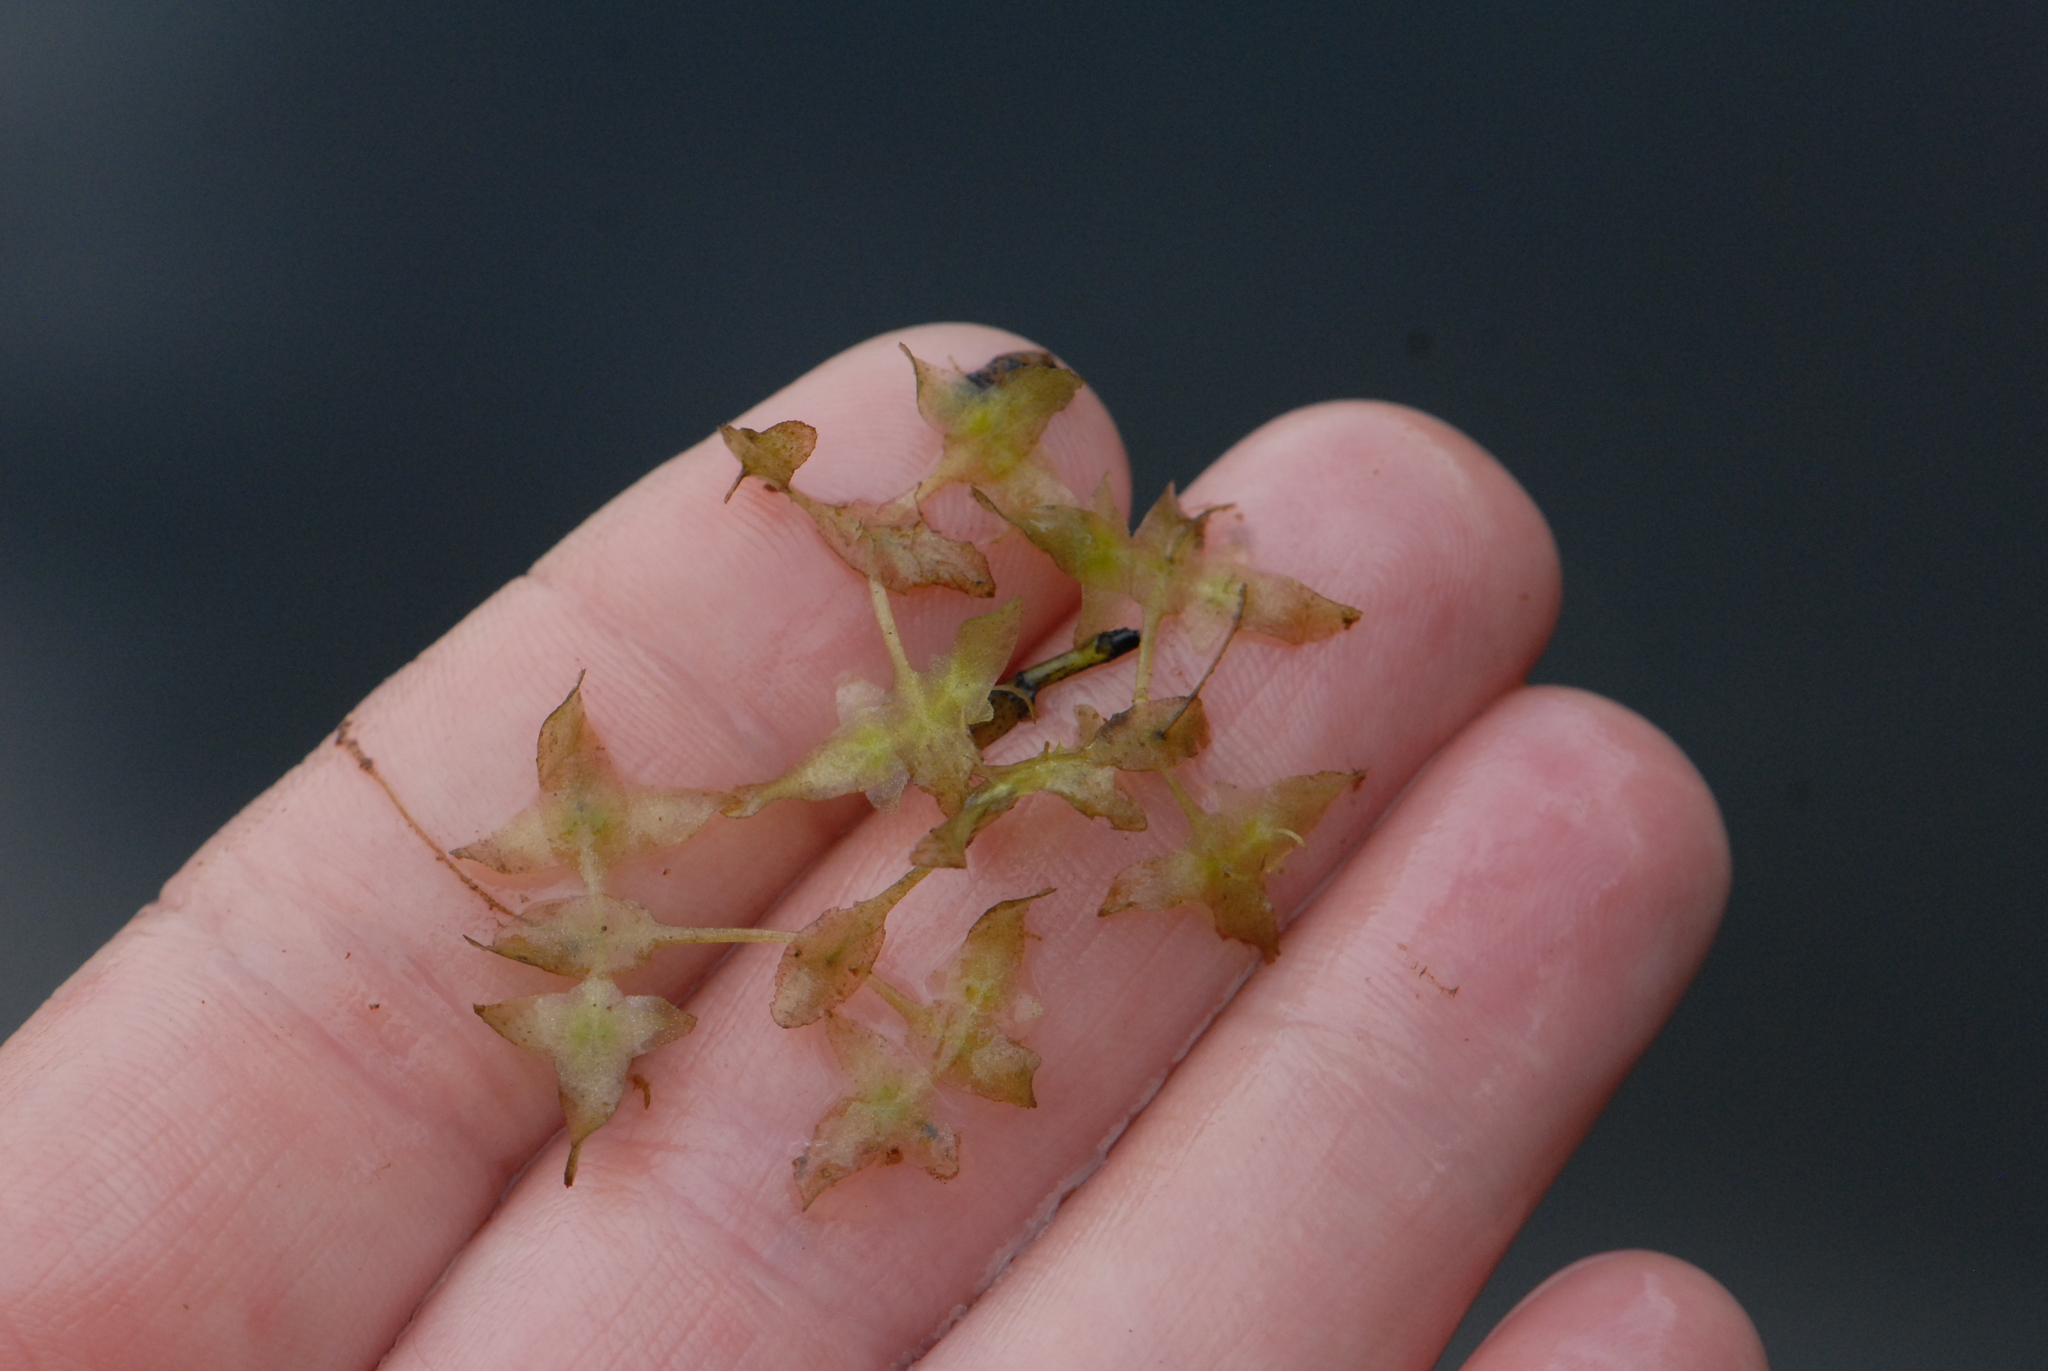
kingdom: Plantae
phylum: Tracheophyta
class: Liliopsida
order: Alismatales
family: Araceae
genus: Lemna
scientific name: Lemna trisulca
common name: Ivy-leaved duckweed
